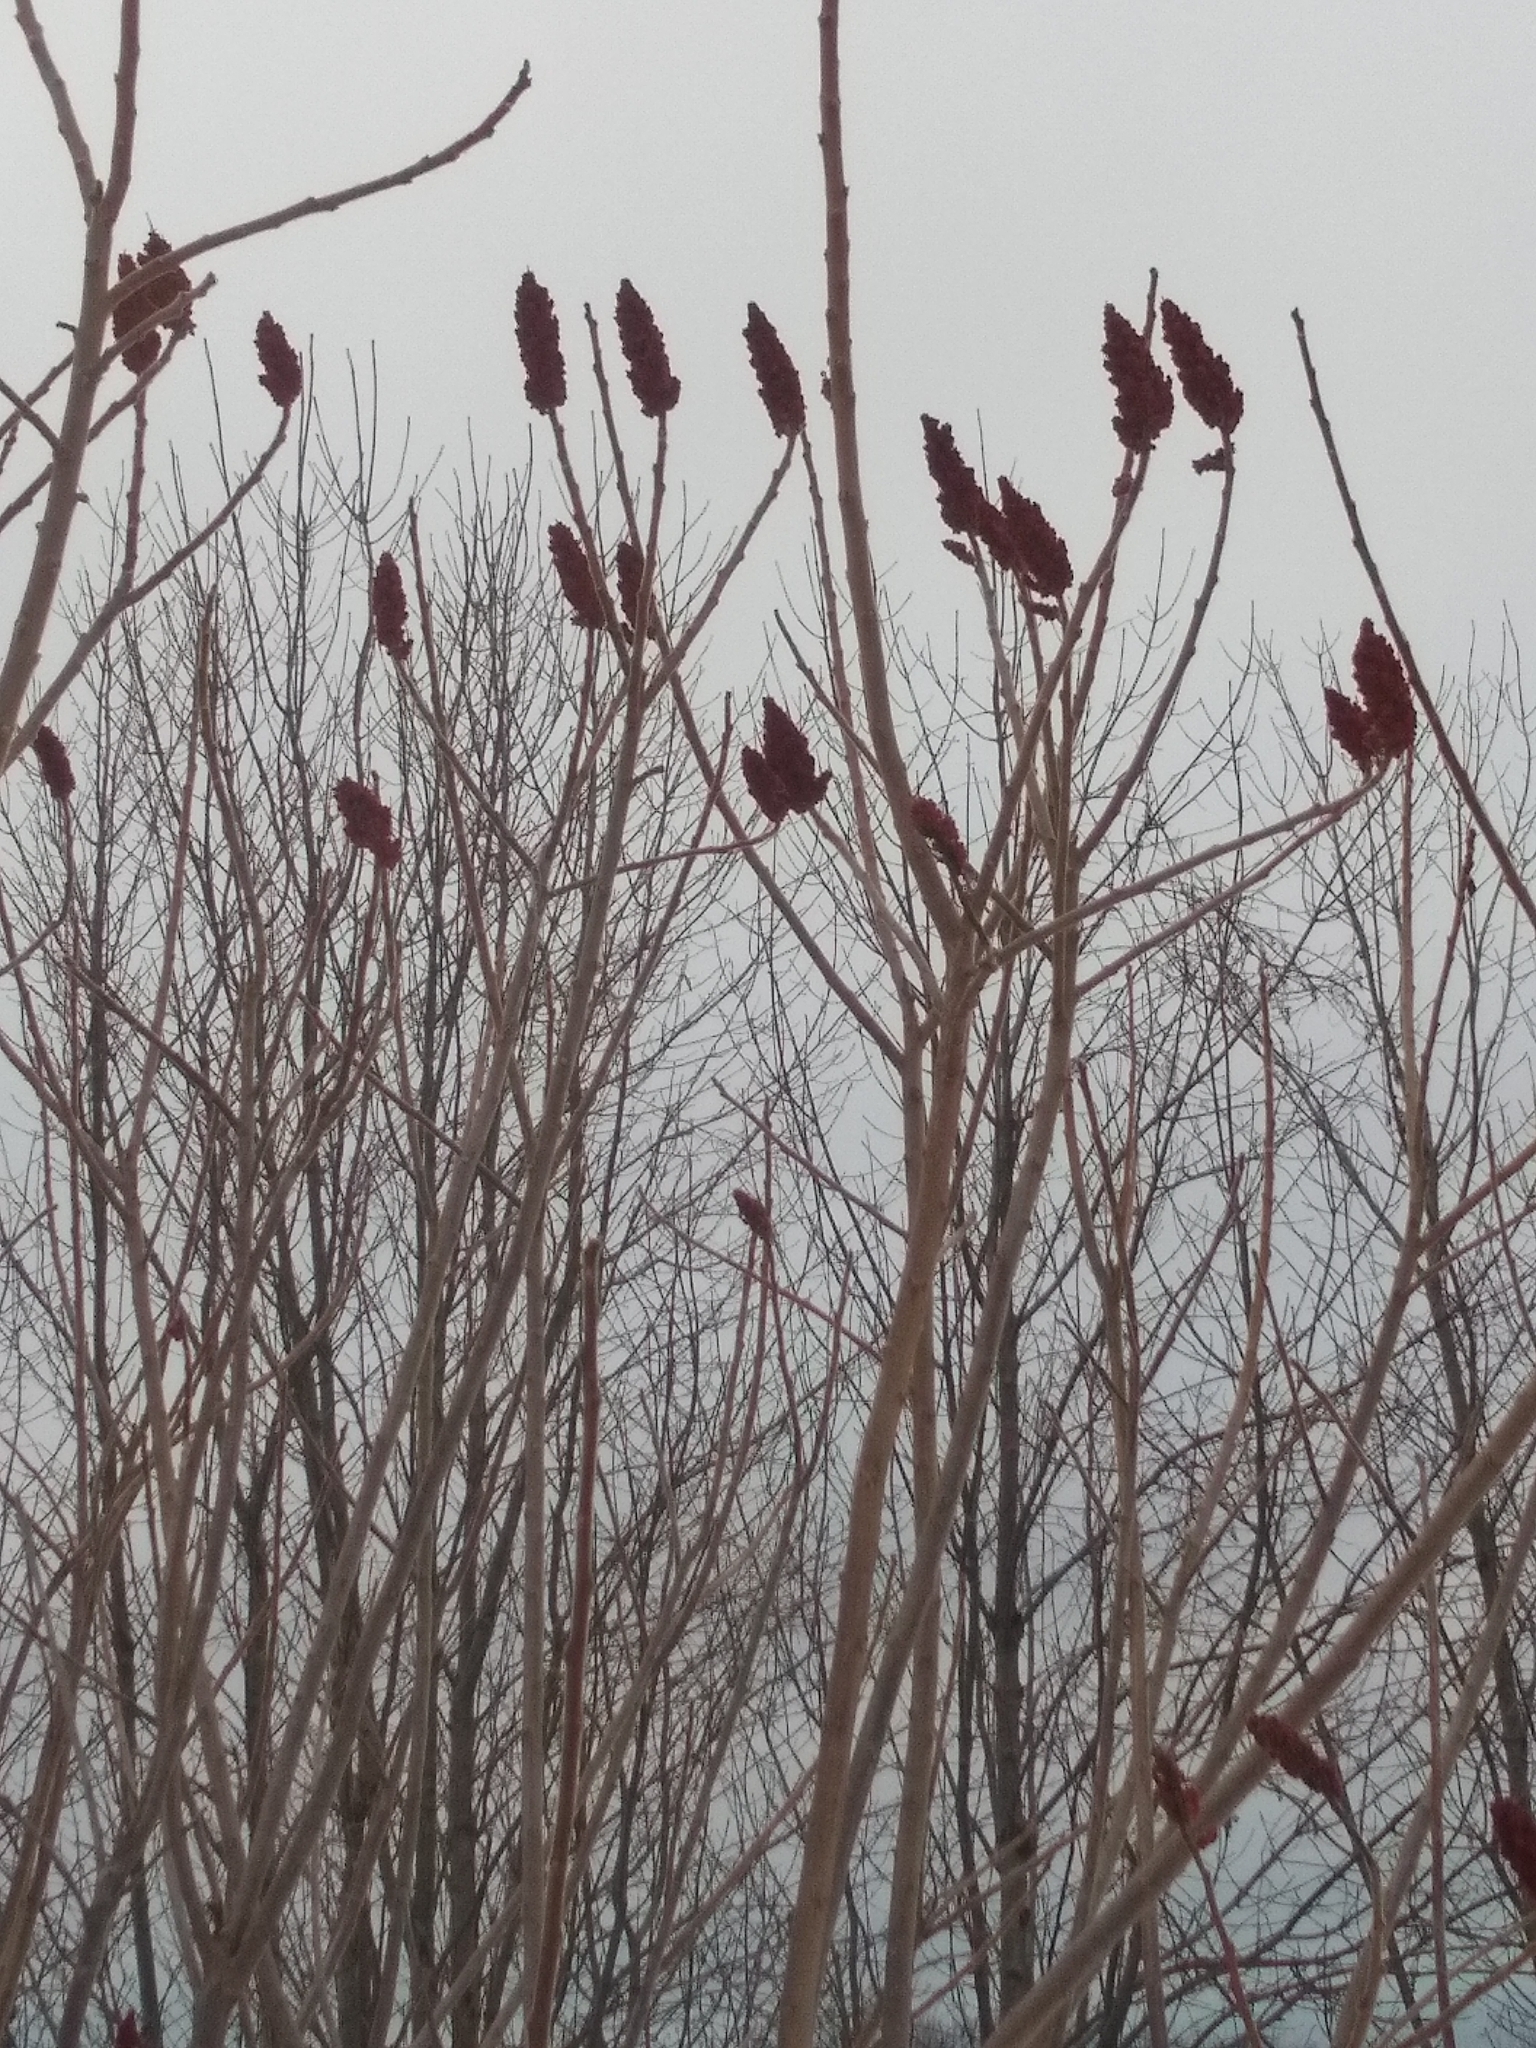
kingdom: Plantae
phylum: Tracheophyta
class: Magnoliopsida
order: Sapindales
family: Anacardiaceae
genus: Rhus
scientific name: Rhus typhina
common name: Staghorn sumac
